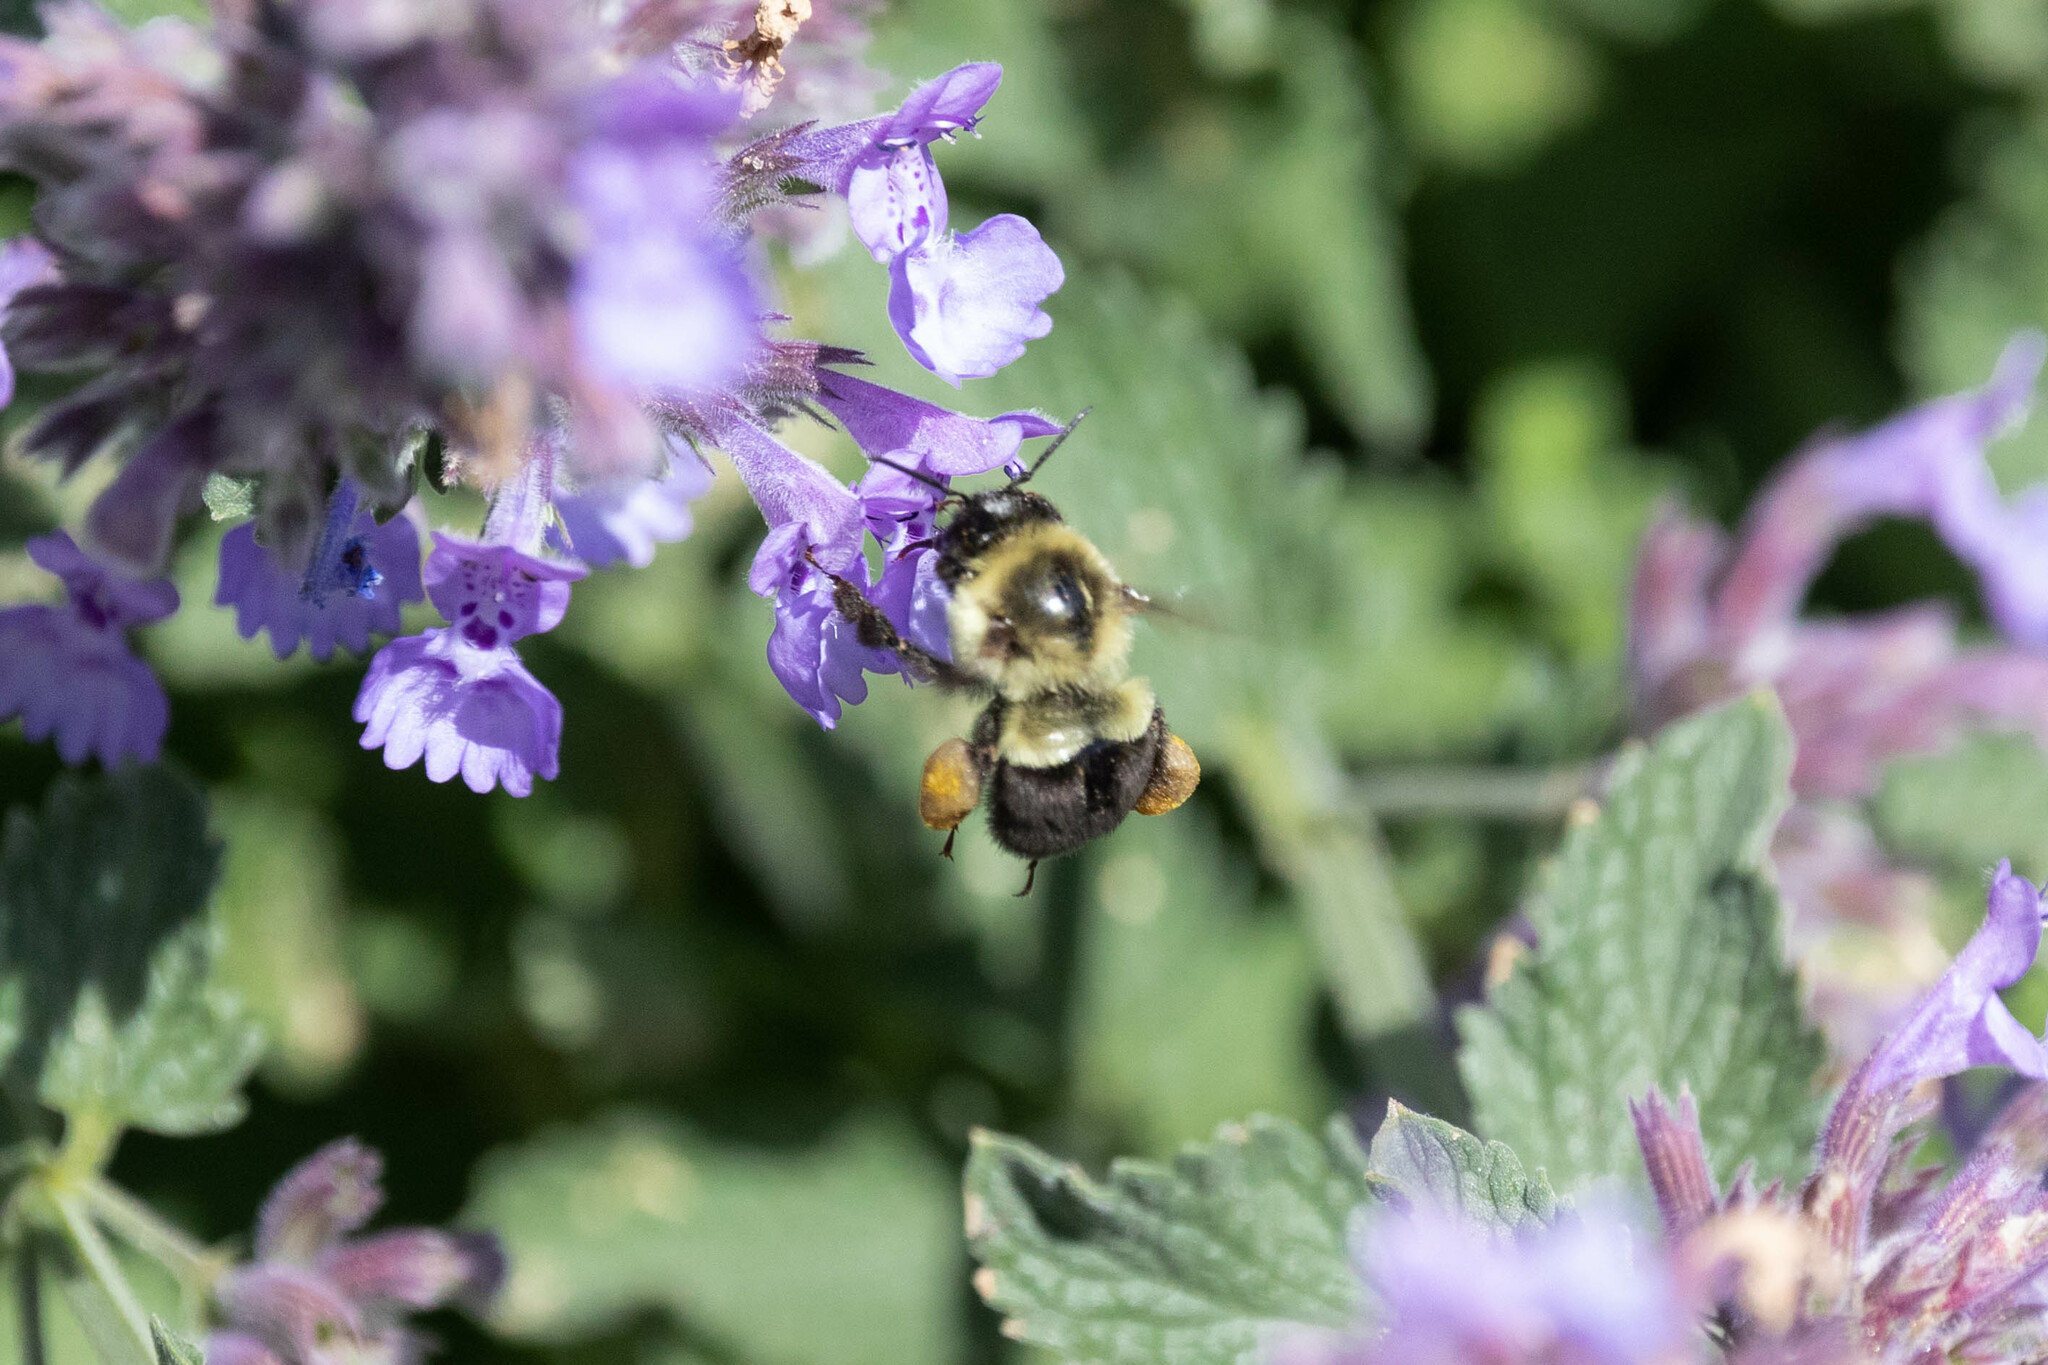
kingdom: Animalia
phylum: Arthropoda
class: Insecta
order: Hymenoptera
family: Apidae
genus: Bombus
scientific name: Bombus impatiens
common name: Common eastern bumble bee
